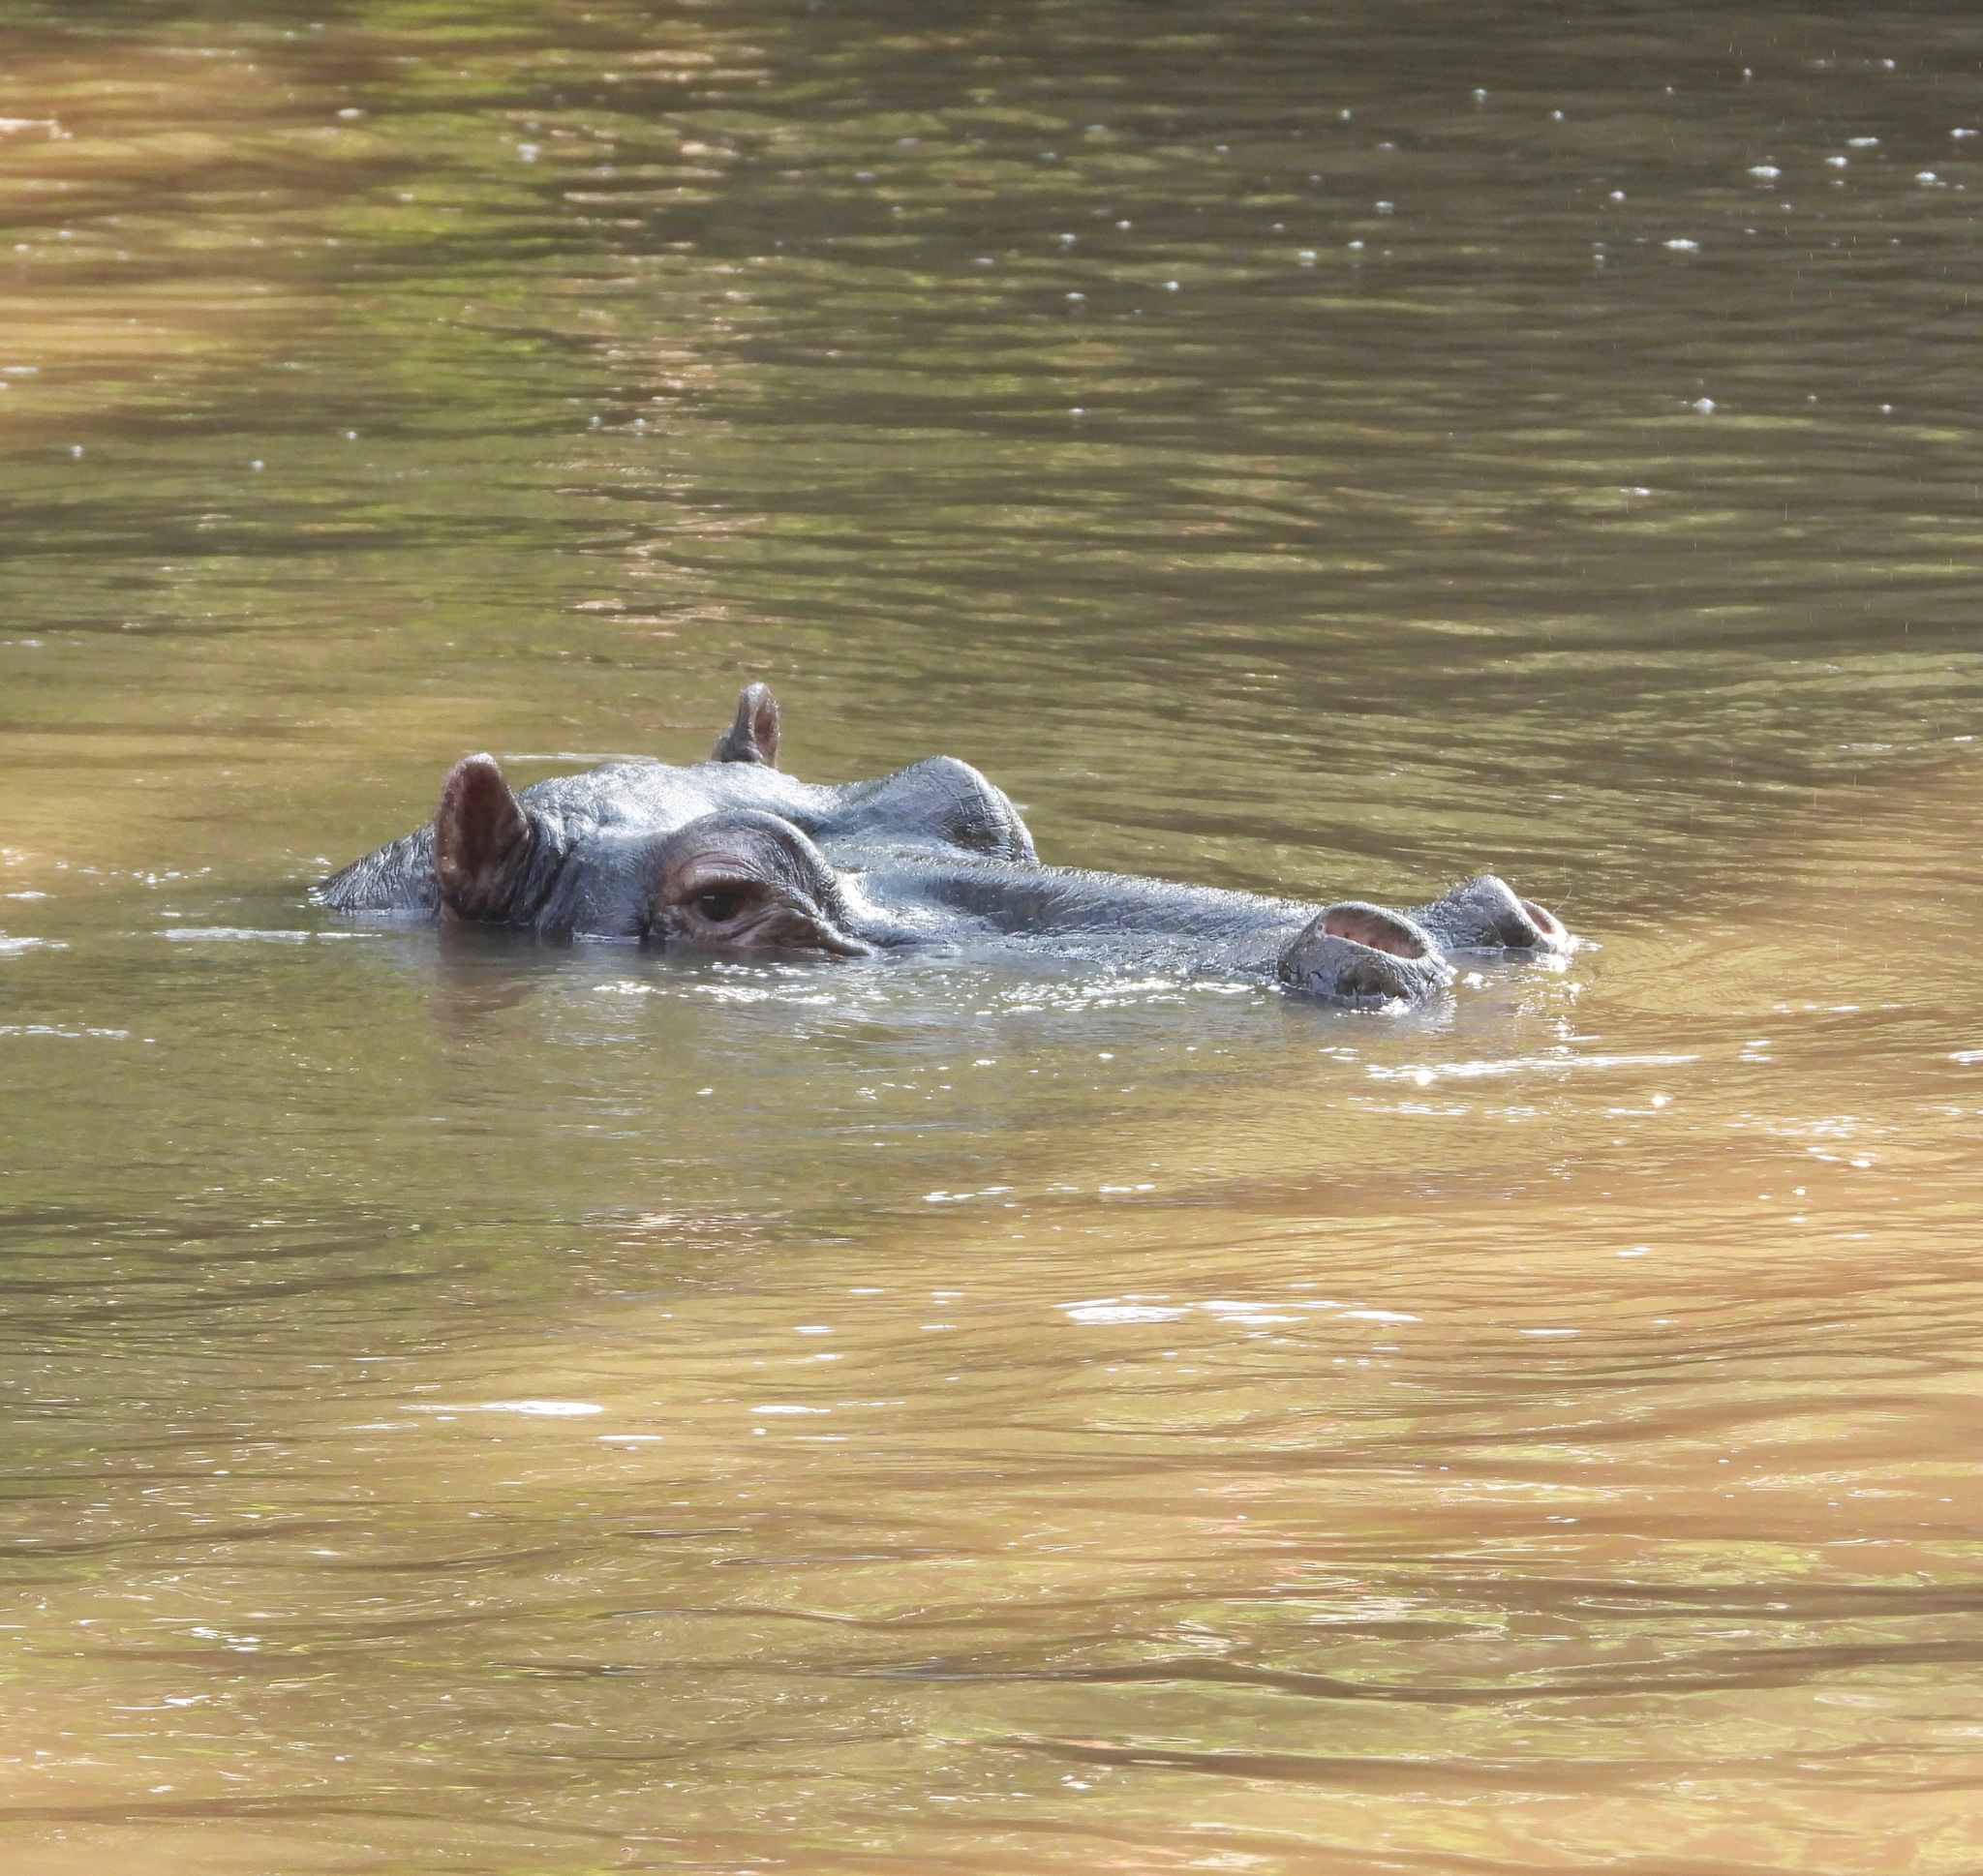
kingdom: Animalia
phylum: Chordata
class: Mammalia
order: Artiodactyla
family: Hippopotamidae
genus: Hippopotamus
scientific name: Hippopotamus amphibius
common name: Common hippopotamus
